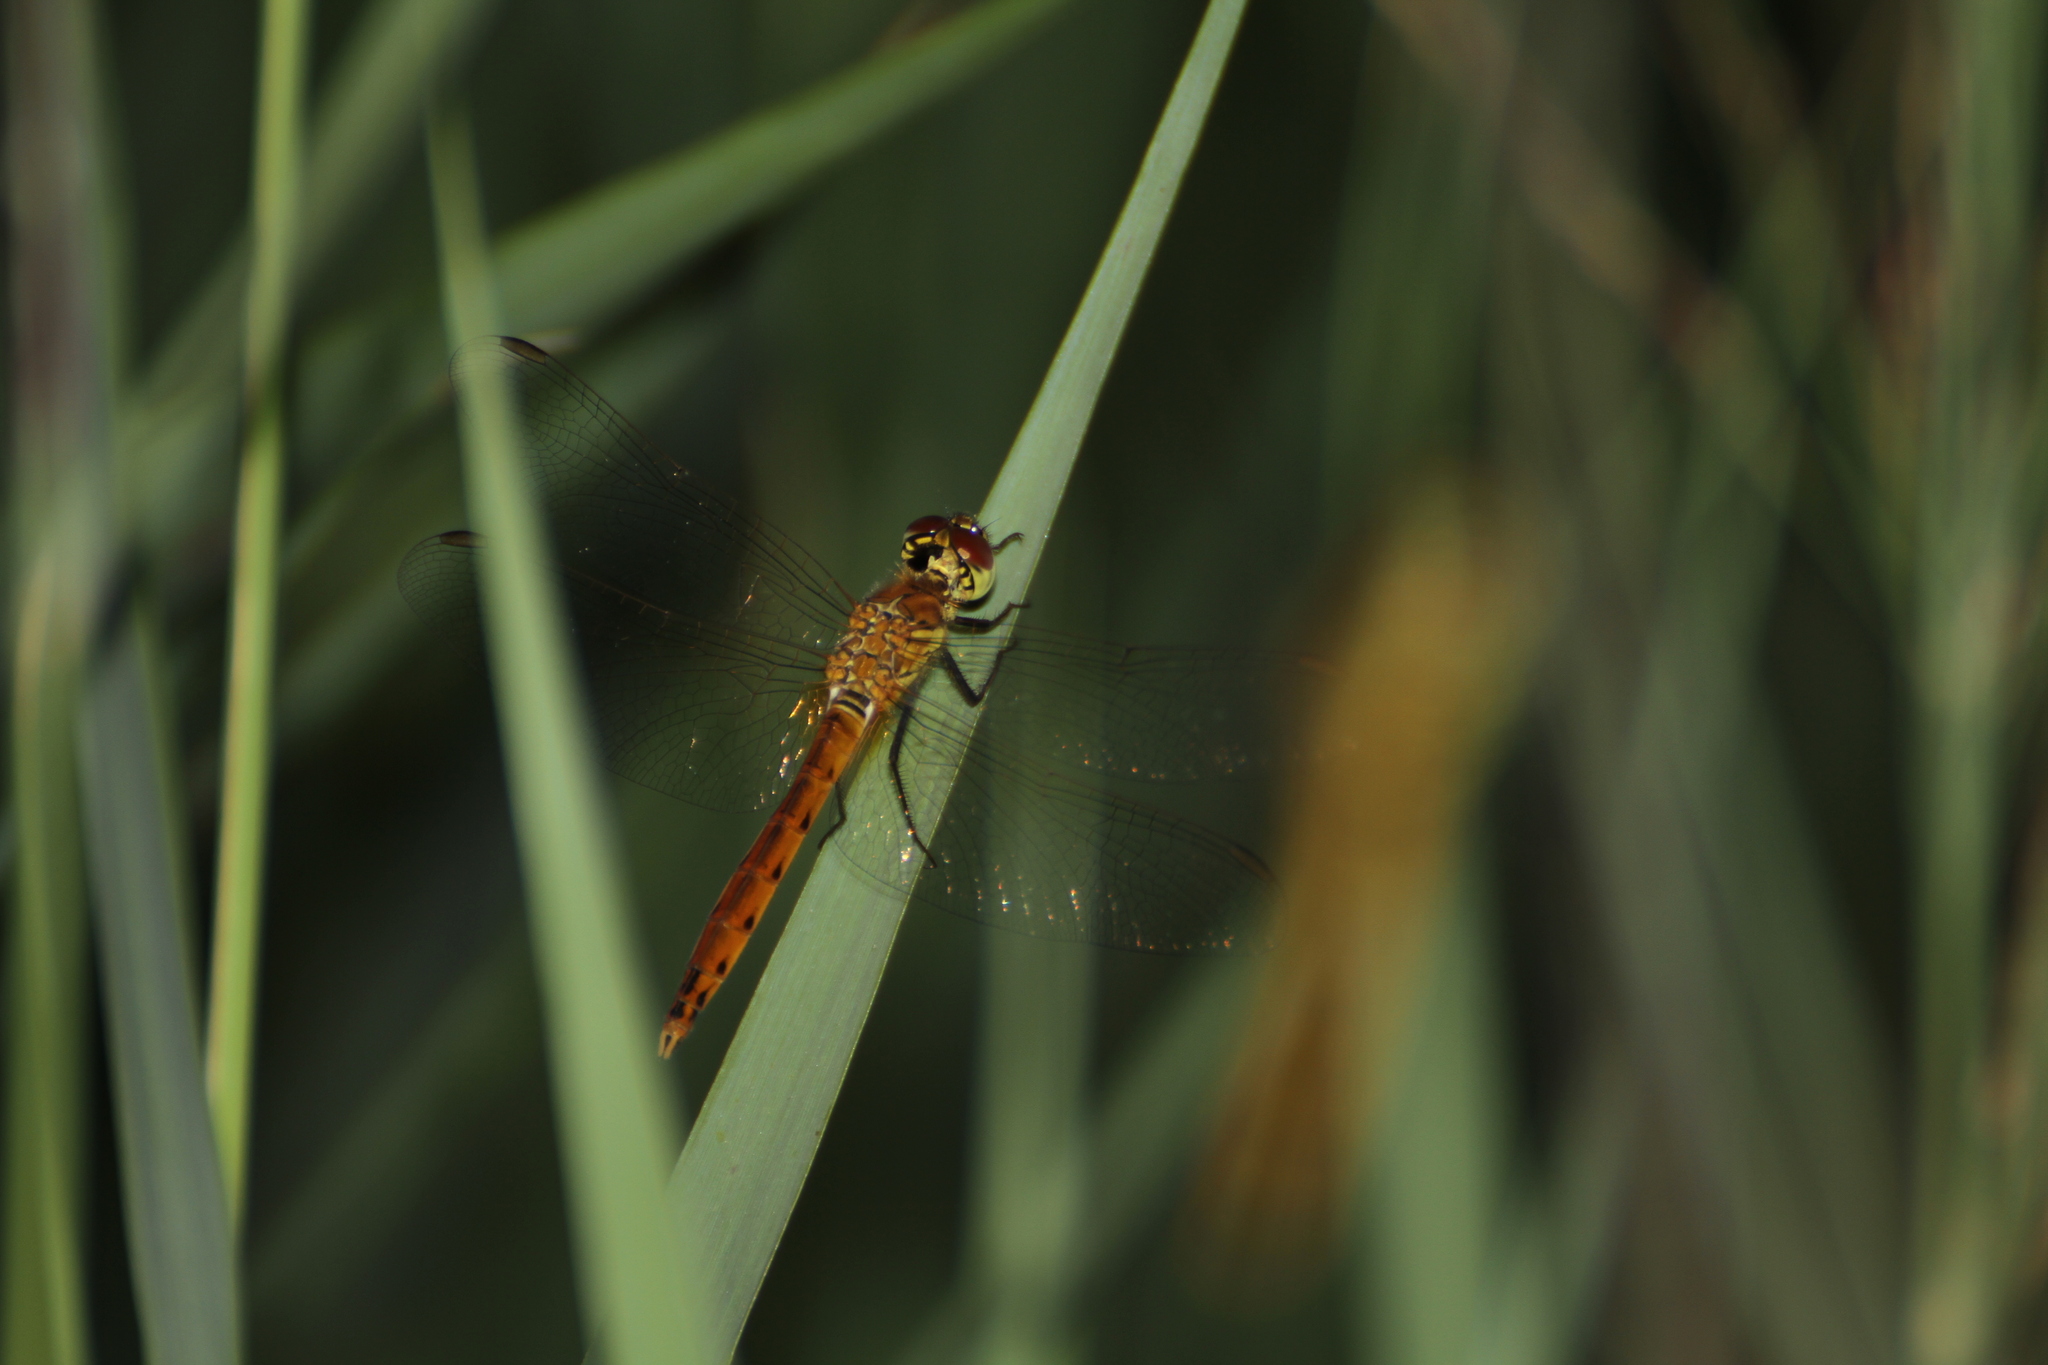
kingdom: Animalia
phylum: Arthropoda
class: Insecta
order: Odonata
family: Libellulidae
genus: Sympetrum
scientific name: Sympetrum depressiusculum
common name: Spotted darter
